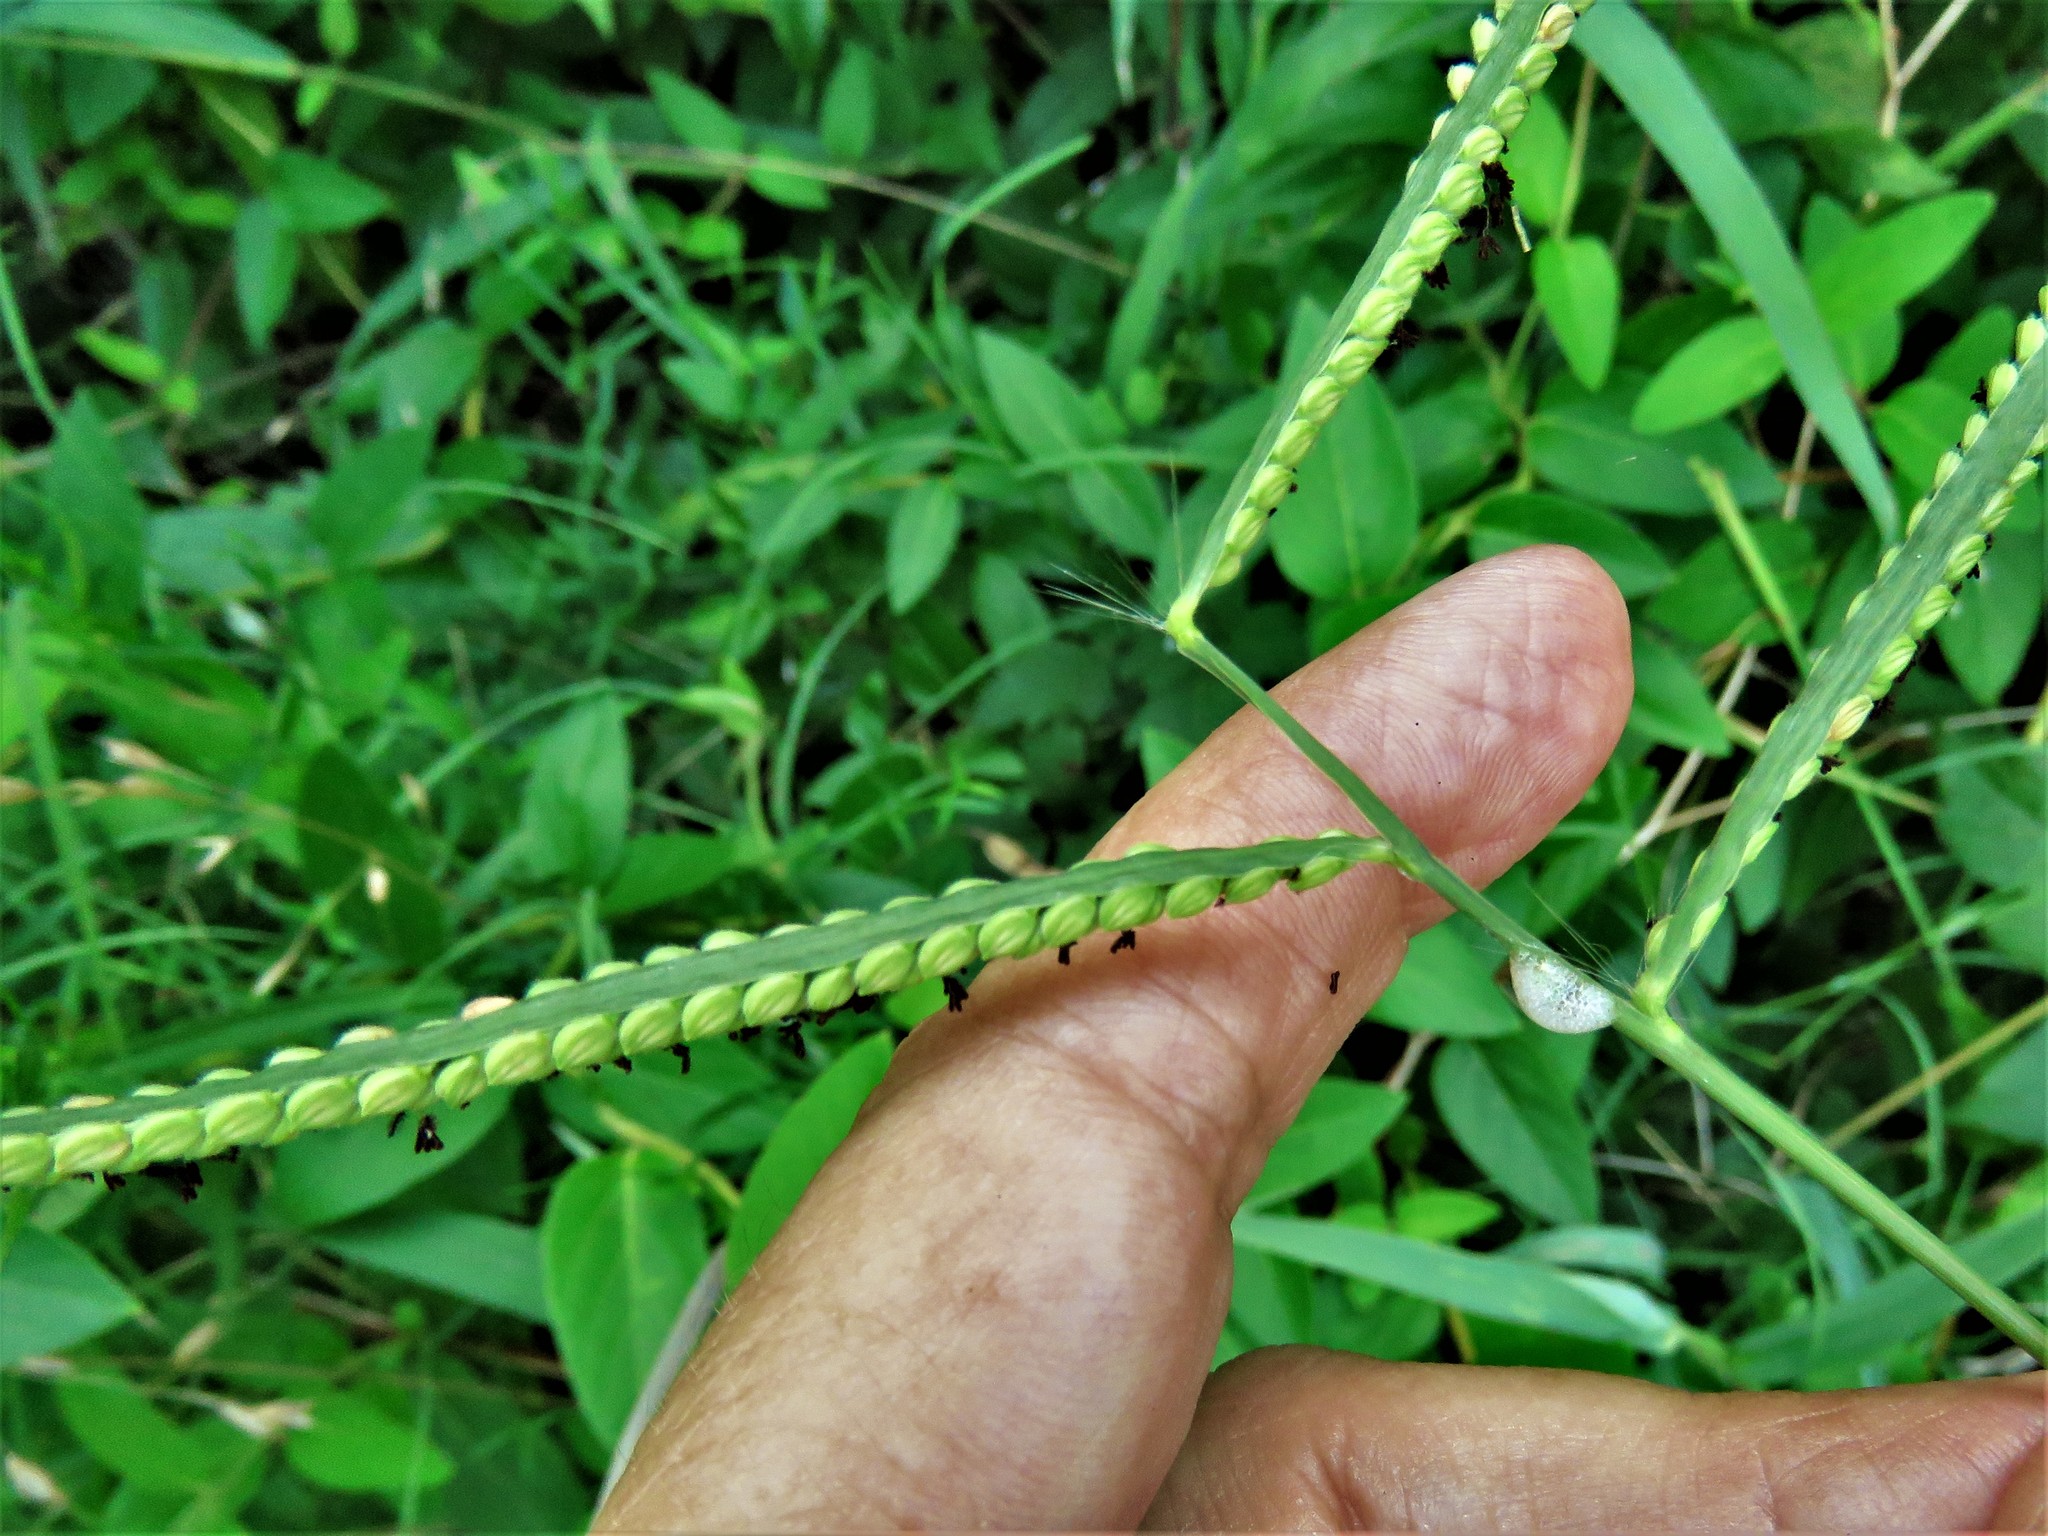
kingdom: Plantae
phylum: Tracheophyta
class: Liliopsida
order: Poales
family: Poaceae
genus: Paspalum
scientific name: Paspalum pubiflorum
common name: Hairy-seed paspalum
